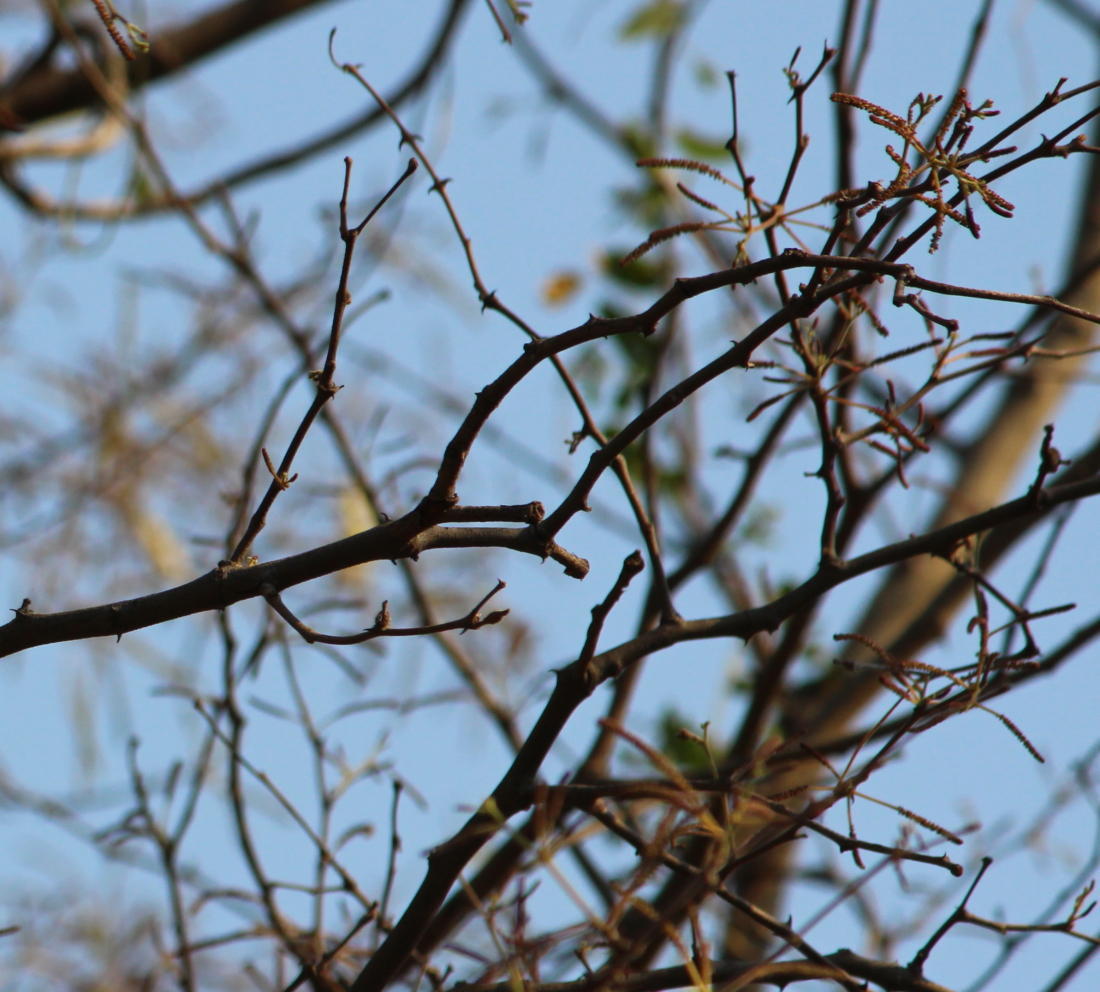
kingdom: Plantae
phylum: Tracheophyta
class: Magnoliopsida
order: Fabales
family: Fabaceae
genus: Senegalia
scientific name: Senegalia nigrescens
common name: Knobthorn
